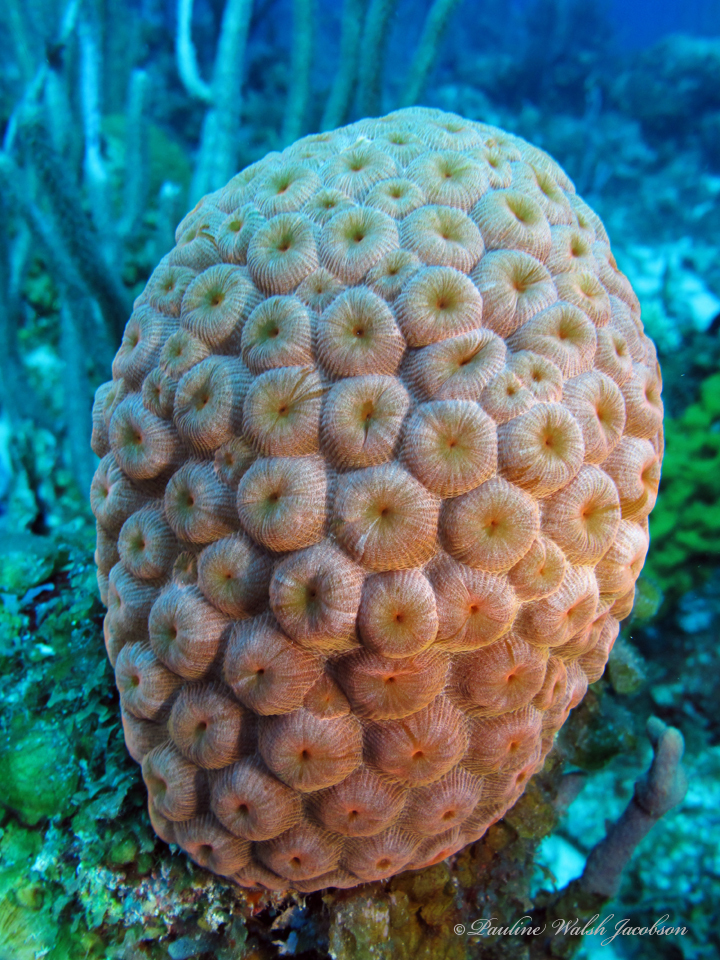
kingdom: Animalia
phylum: Cnidaria
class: Anthozoa
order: Scleractinia
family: Montastraeidae
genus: Montastraea
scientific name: Montastraea cavernosa
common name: Great star coral
